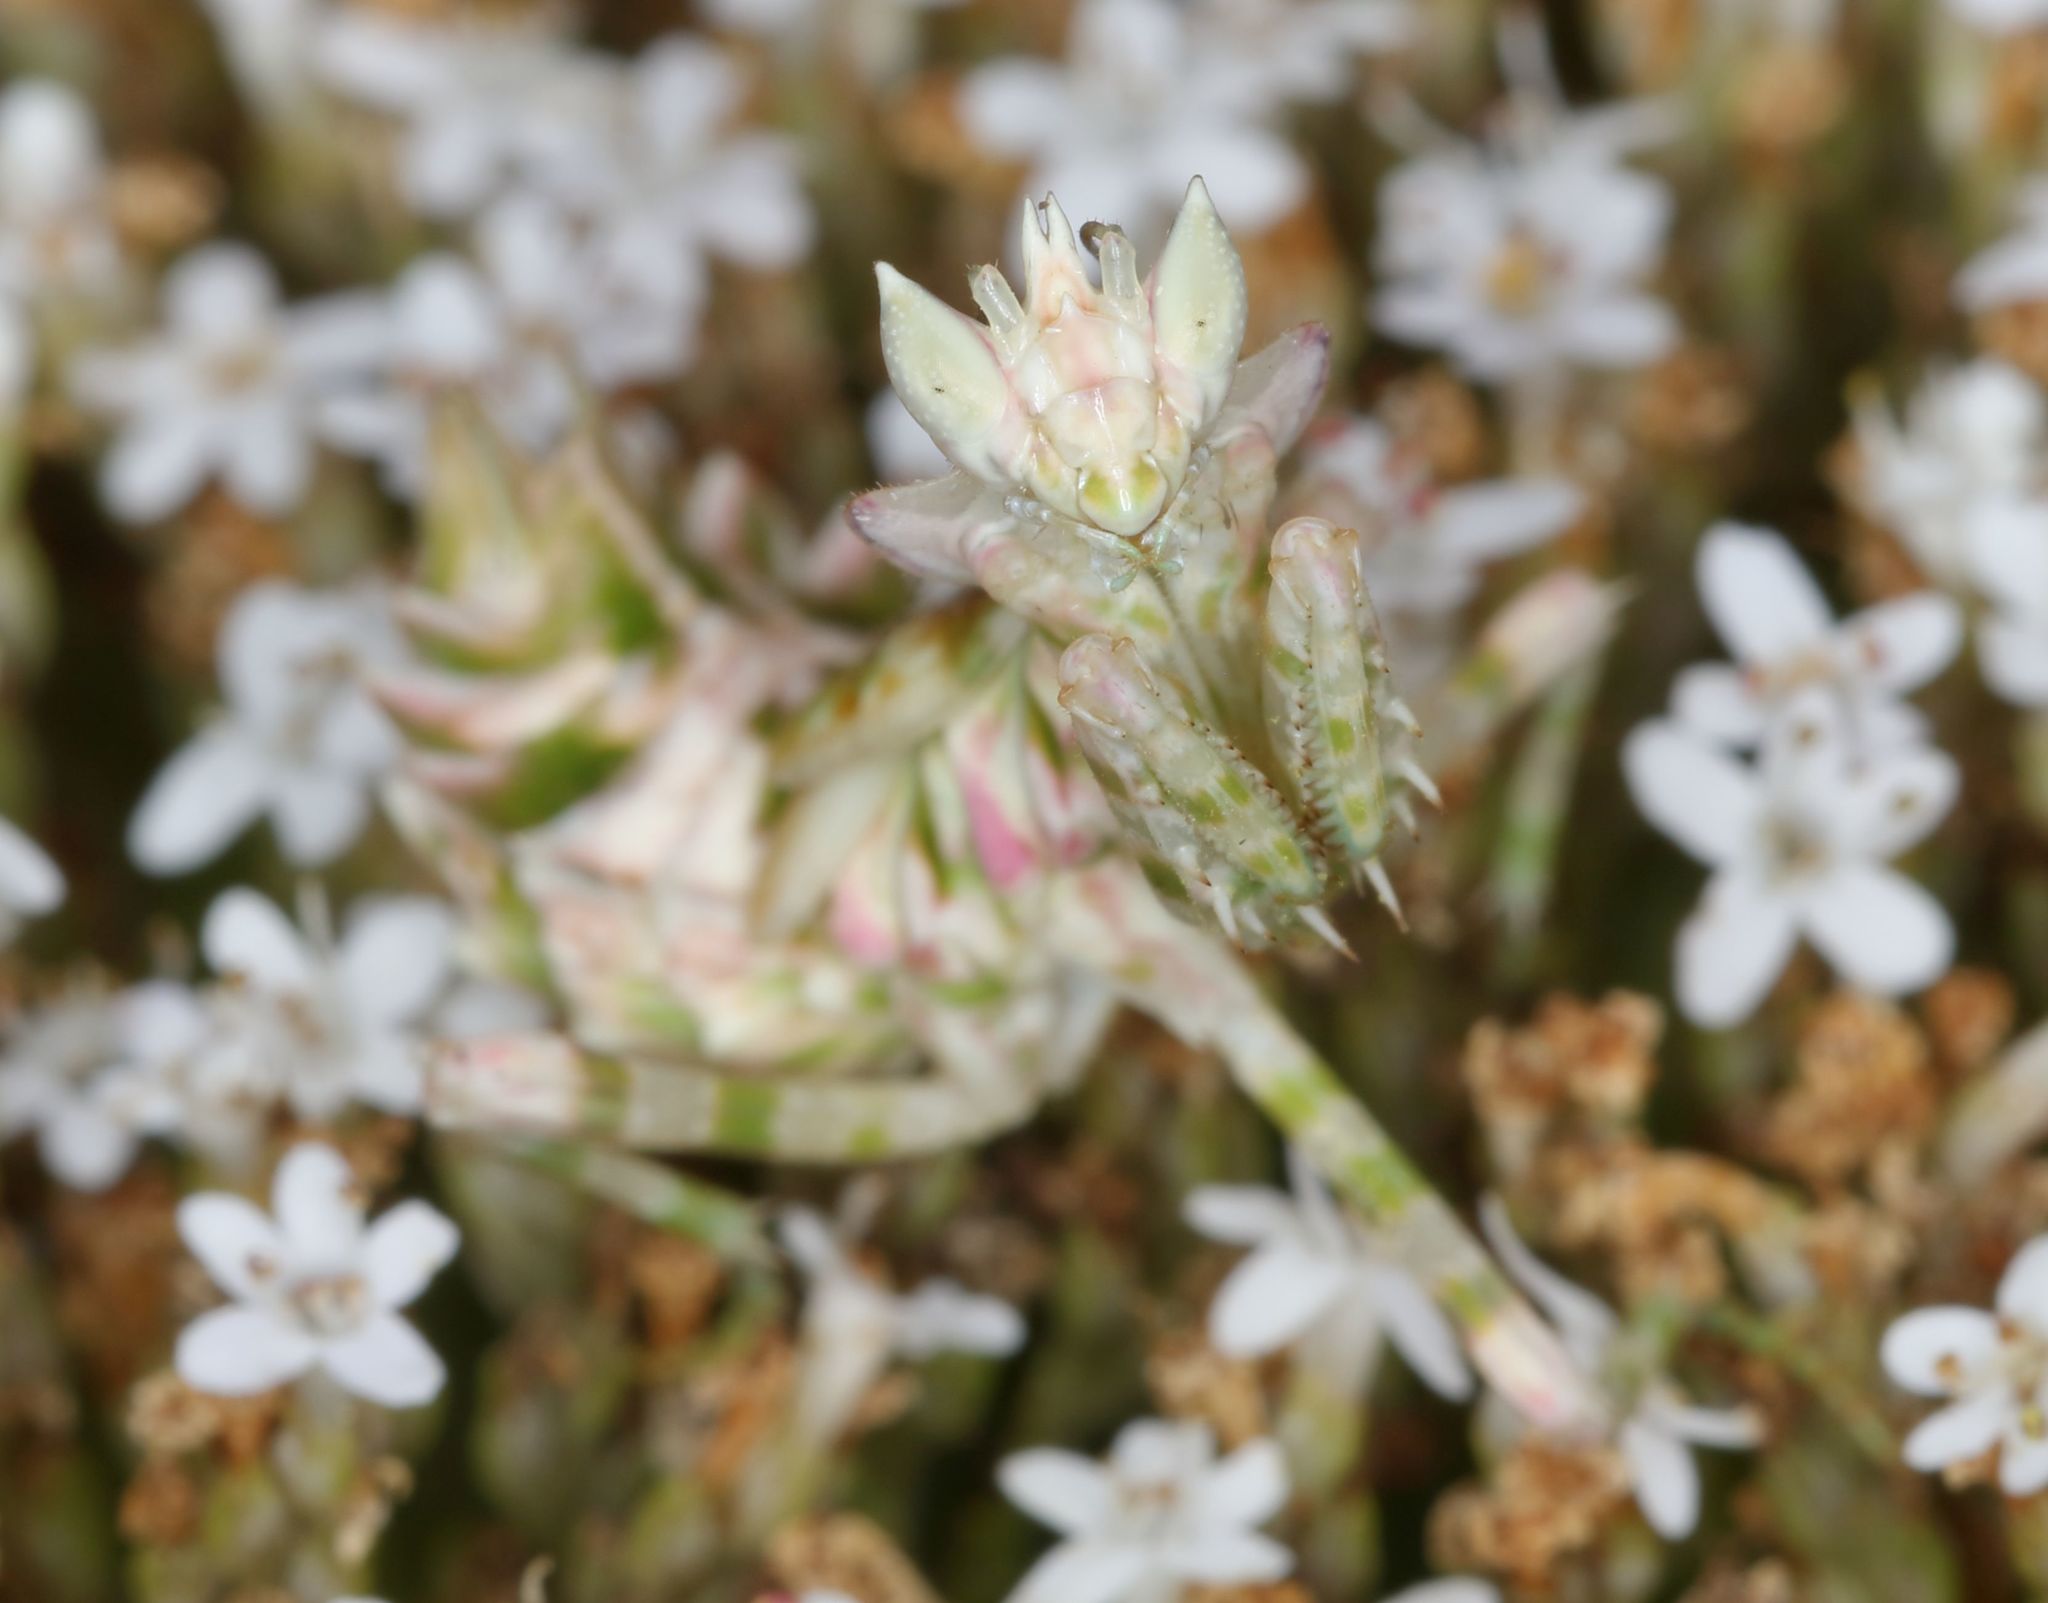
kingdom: Animalia
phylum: Arthropoda
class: Insecta
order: Mantodea
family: Galinthiadidae
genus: Harpagomantis
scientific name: Harpagomantis tricolor
